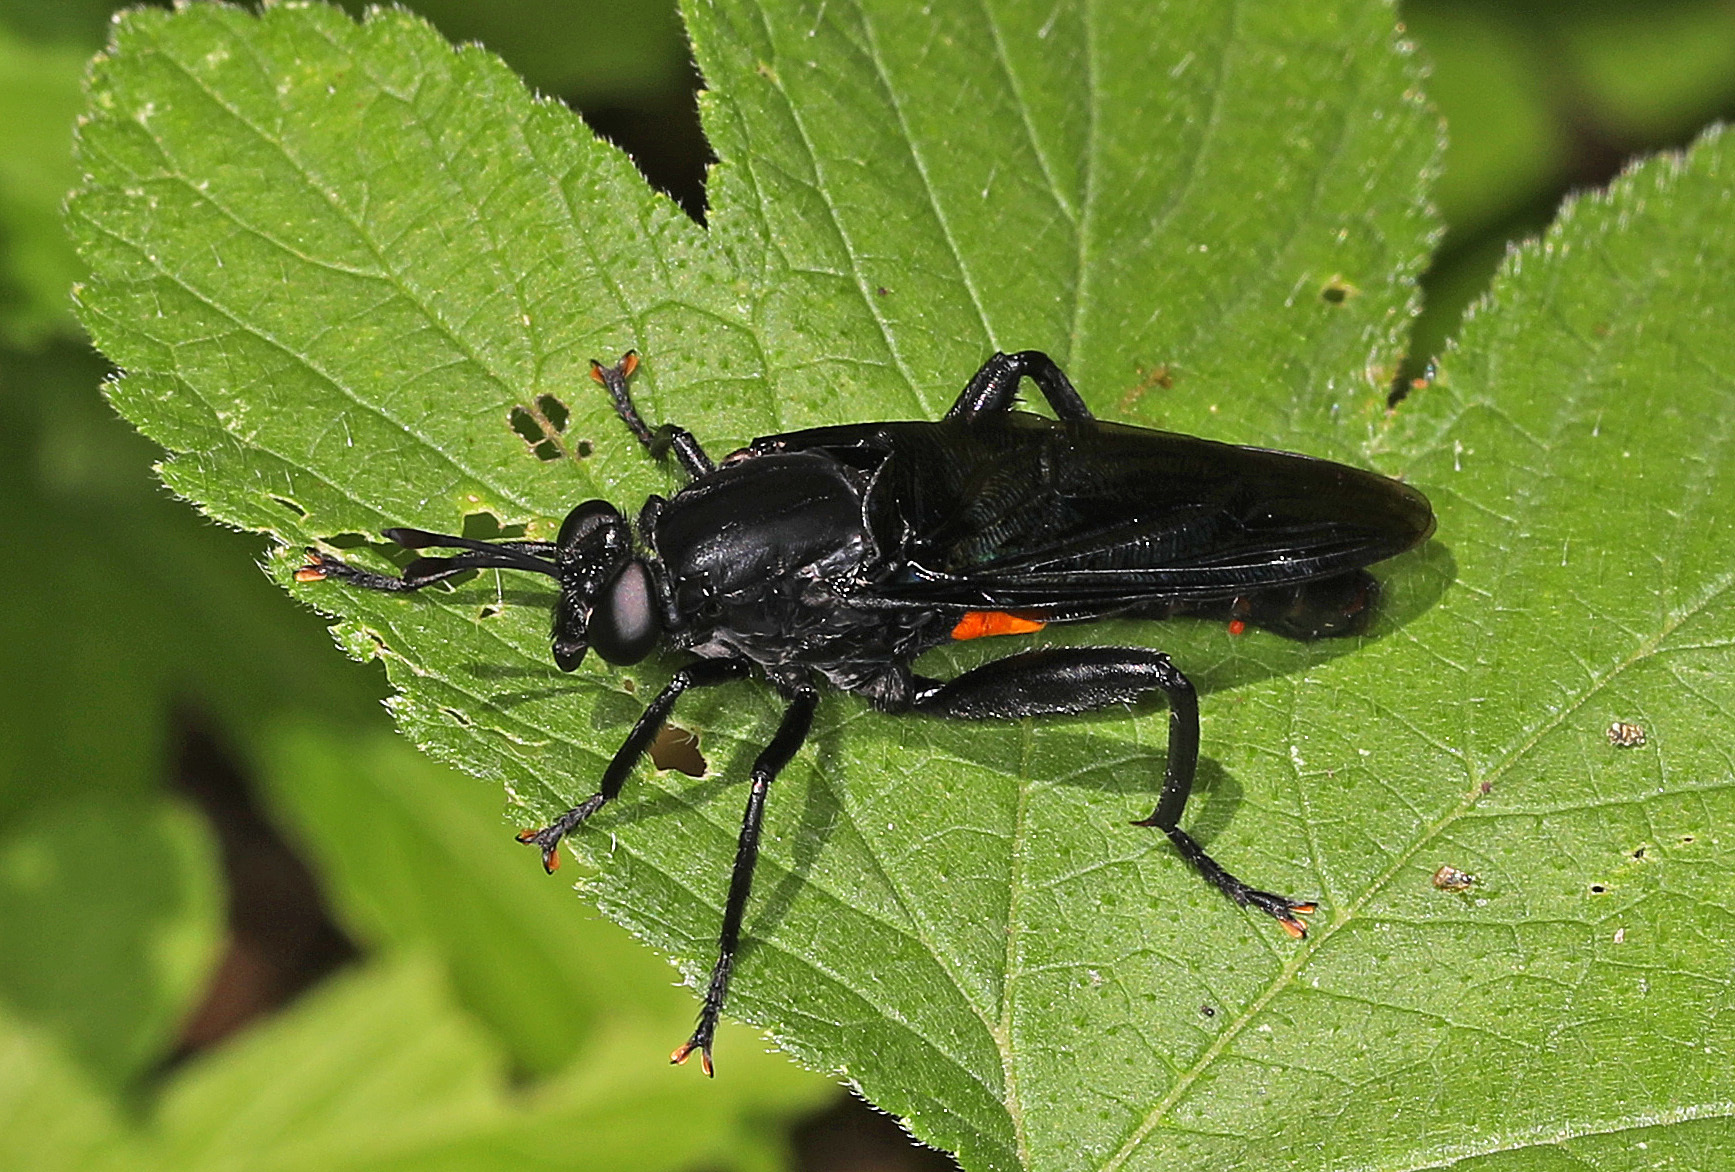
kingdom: Animalia
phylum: Arthropoda
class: Insecta
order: Diptera
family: Mydidae
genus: Mydas
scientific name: Mydas clavatus
